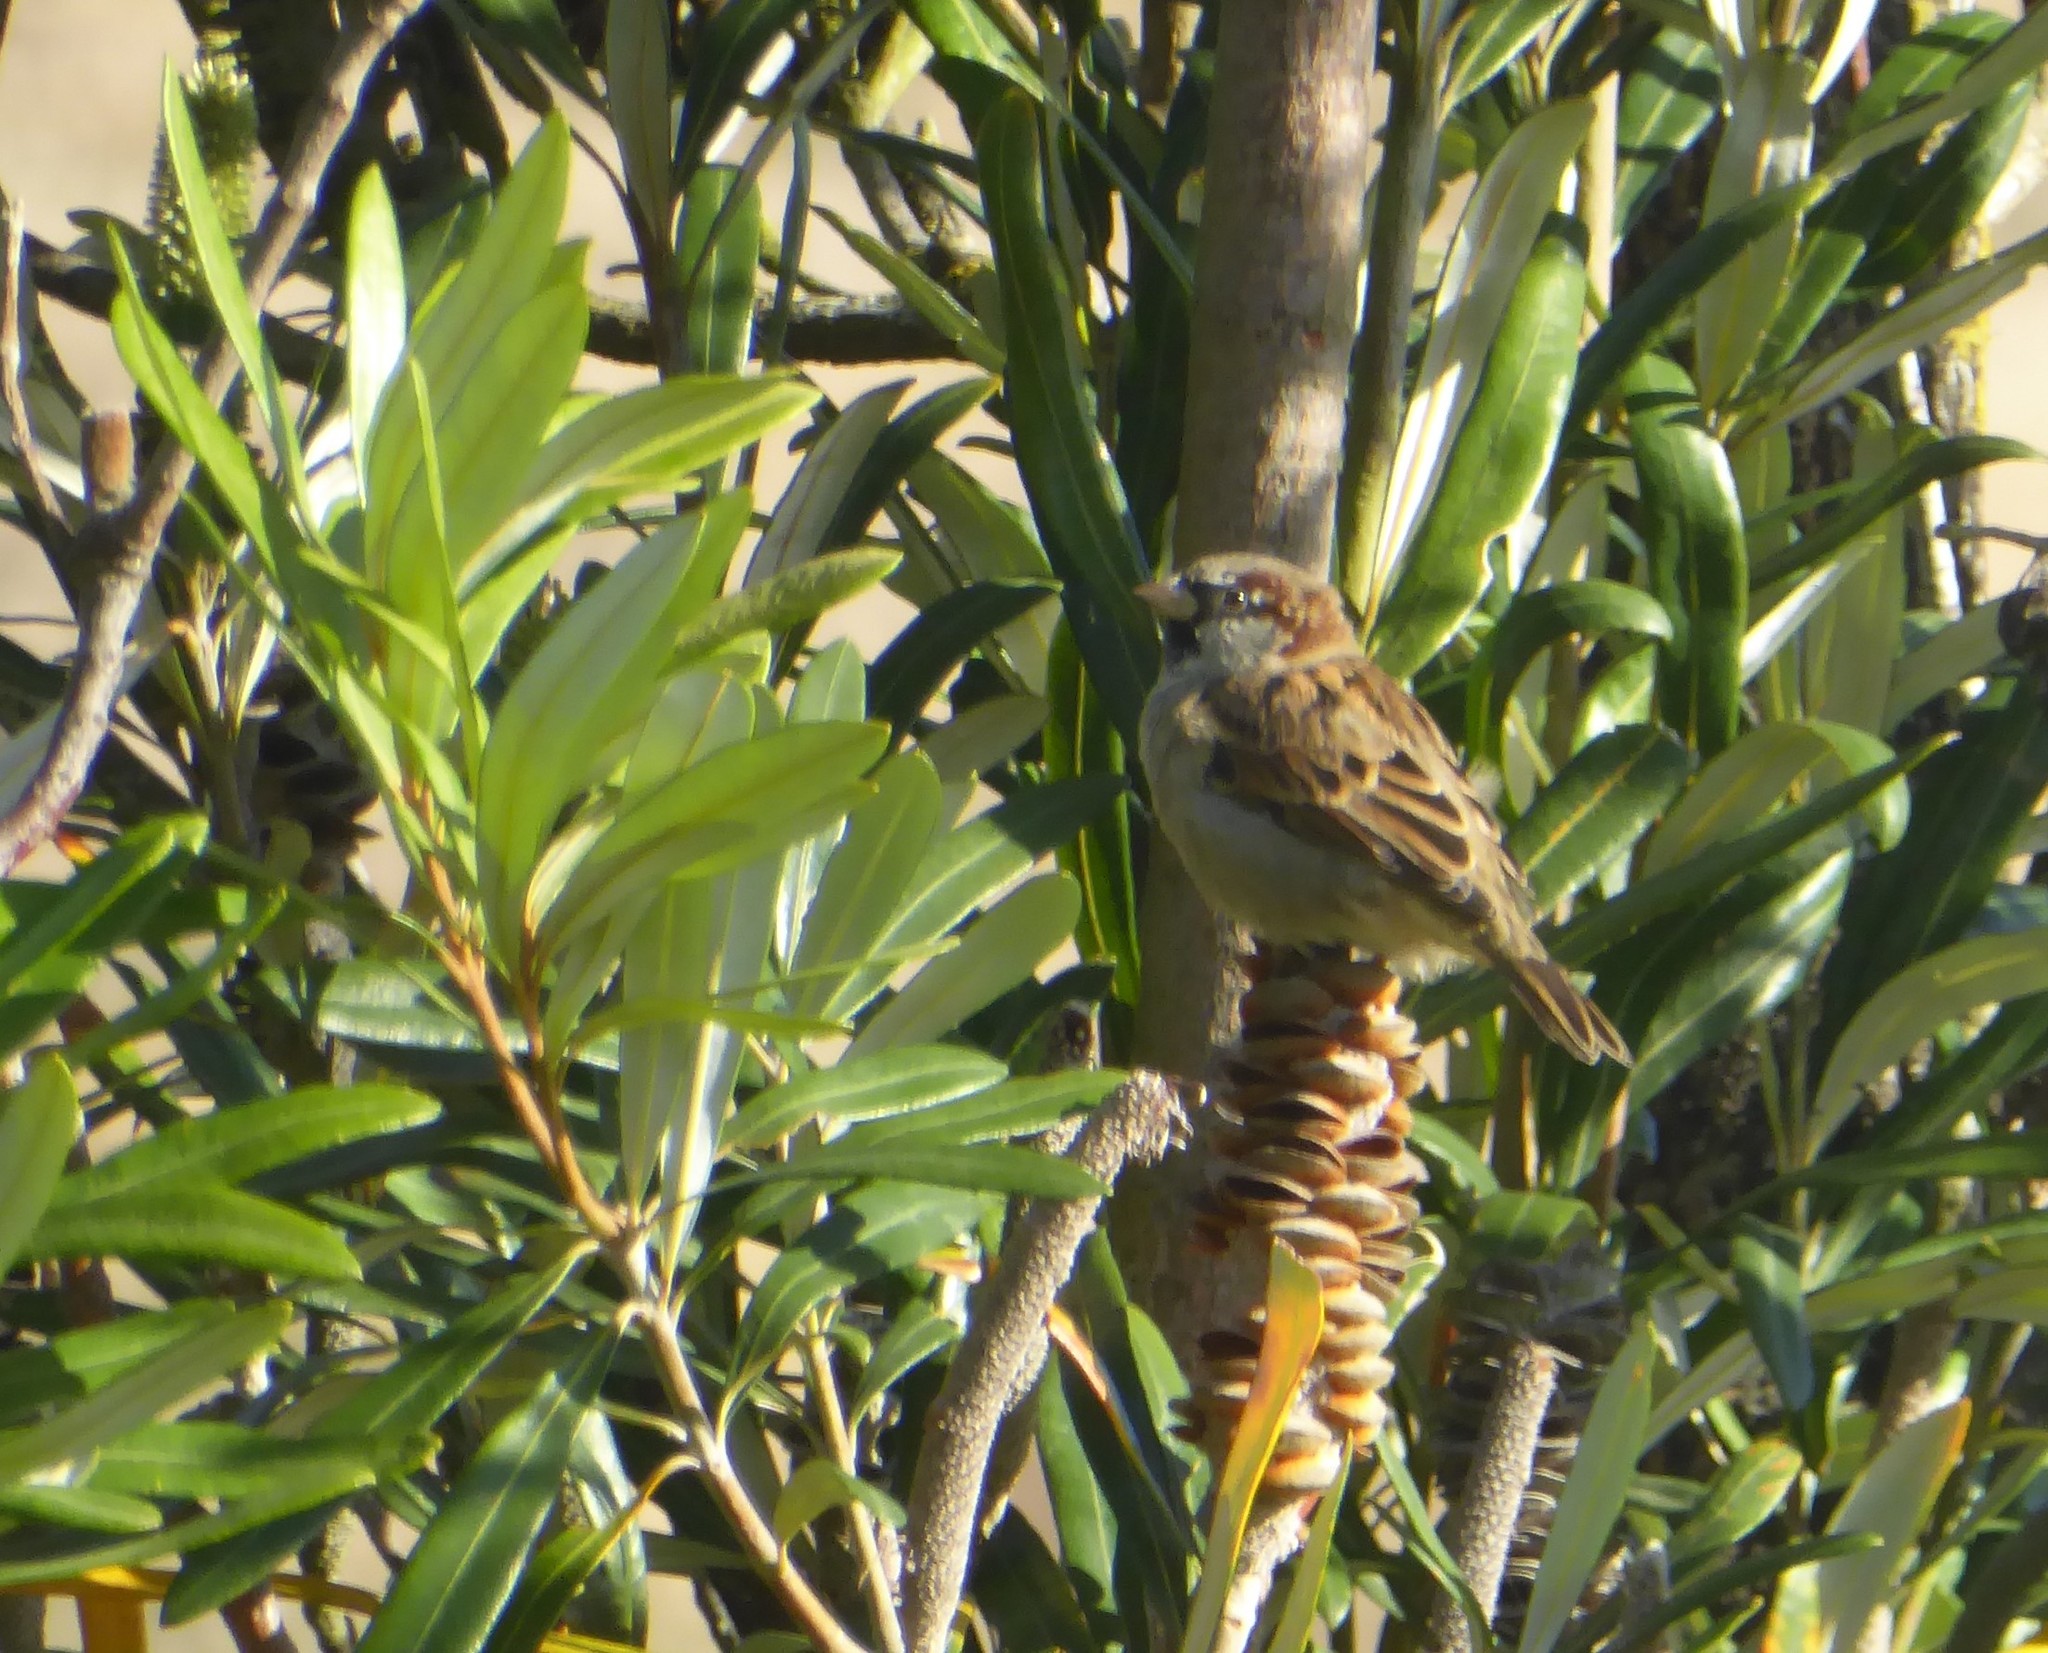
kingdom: Animalia
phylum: Chordata
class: Aves
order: Passeriformes
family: Passeridae
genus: Passer
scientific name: Passer domesticus
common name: House sparrow
